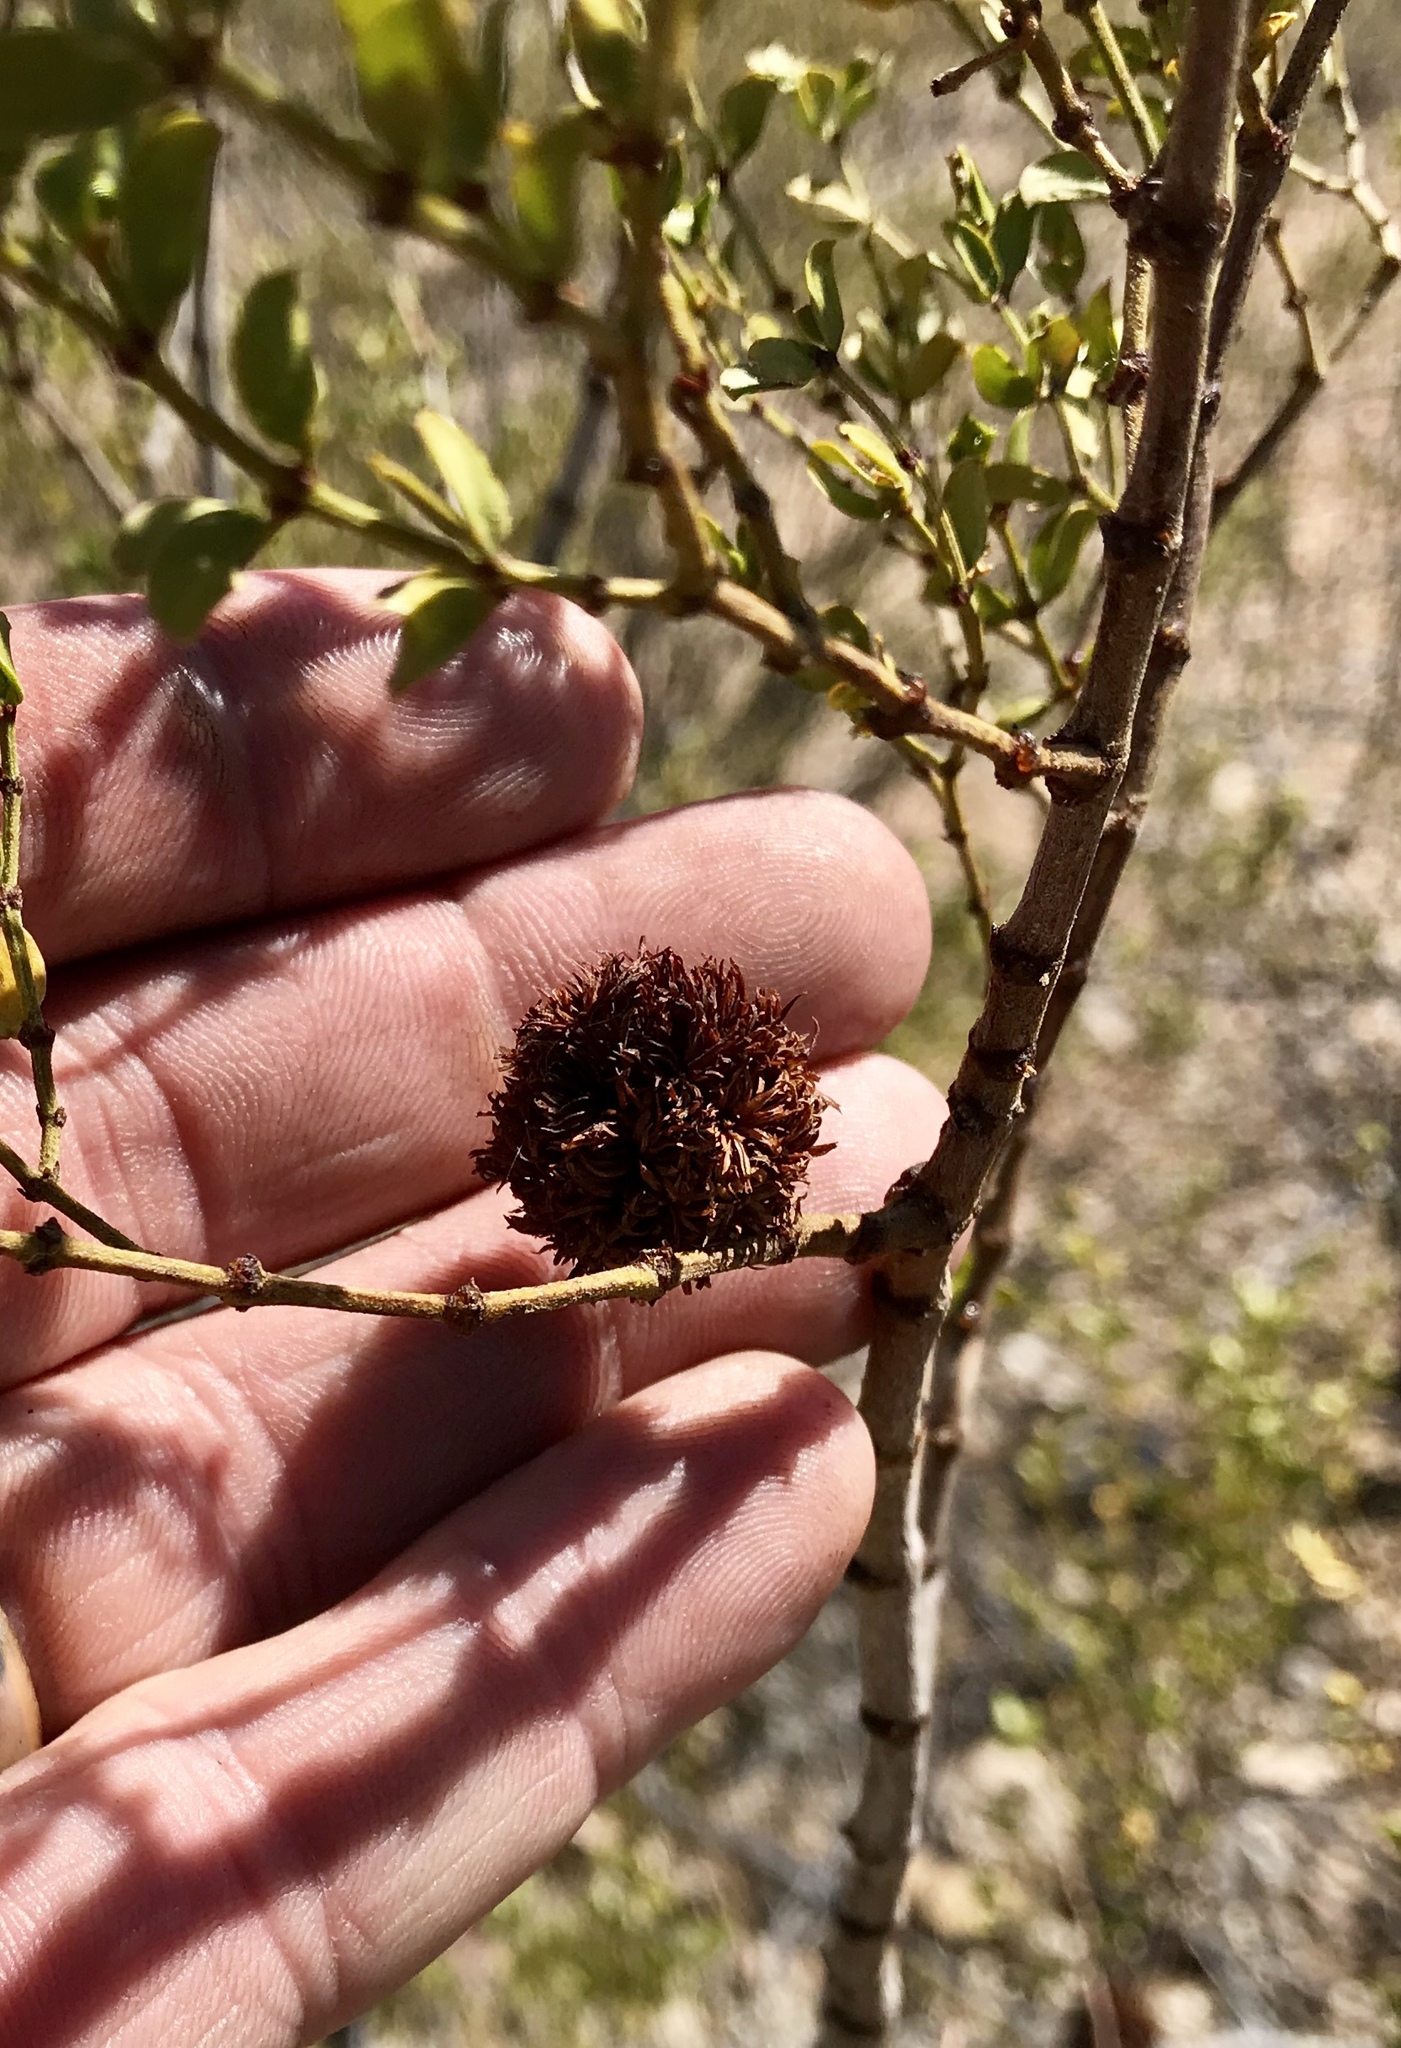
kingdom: Animalia
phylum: Arthropoda
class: Insecta
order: Diptera
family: Cecidomyiidae
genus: Asphondylia
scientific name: Asphondylia auripila
